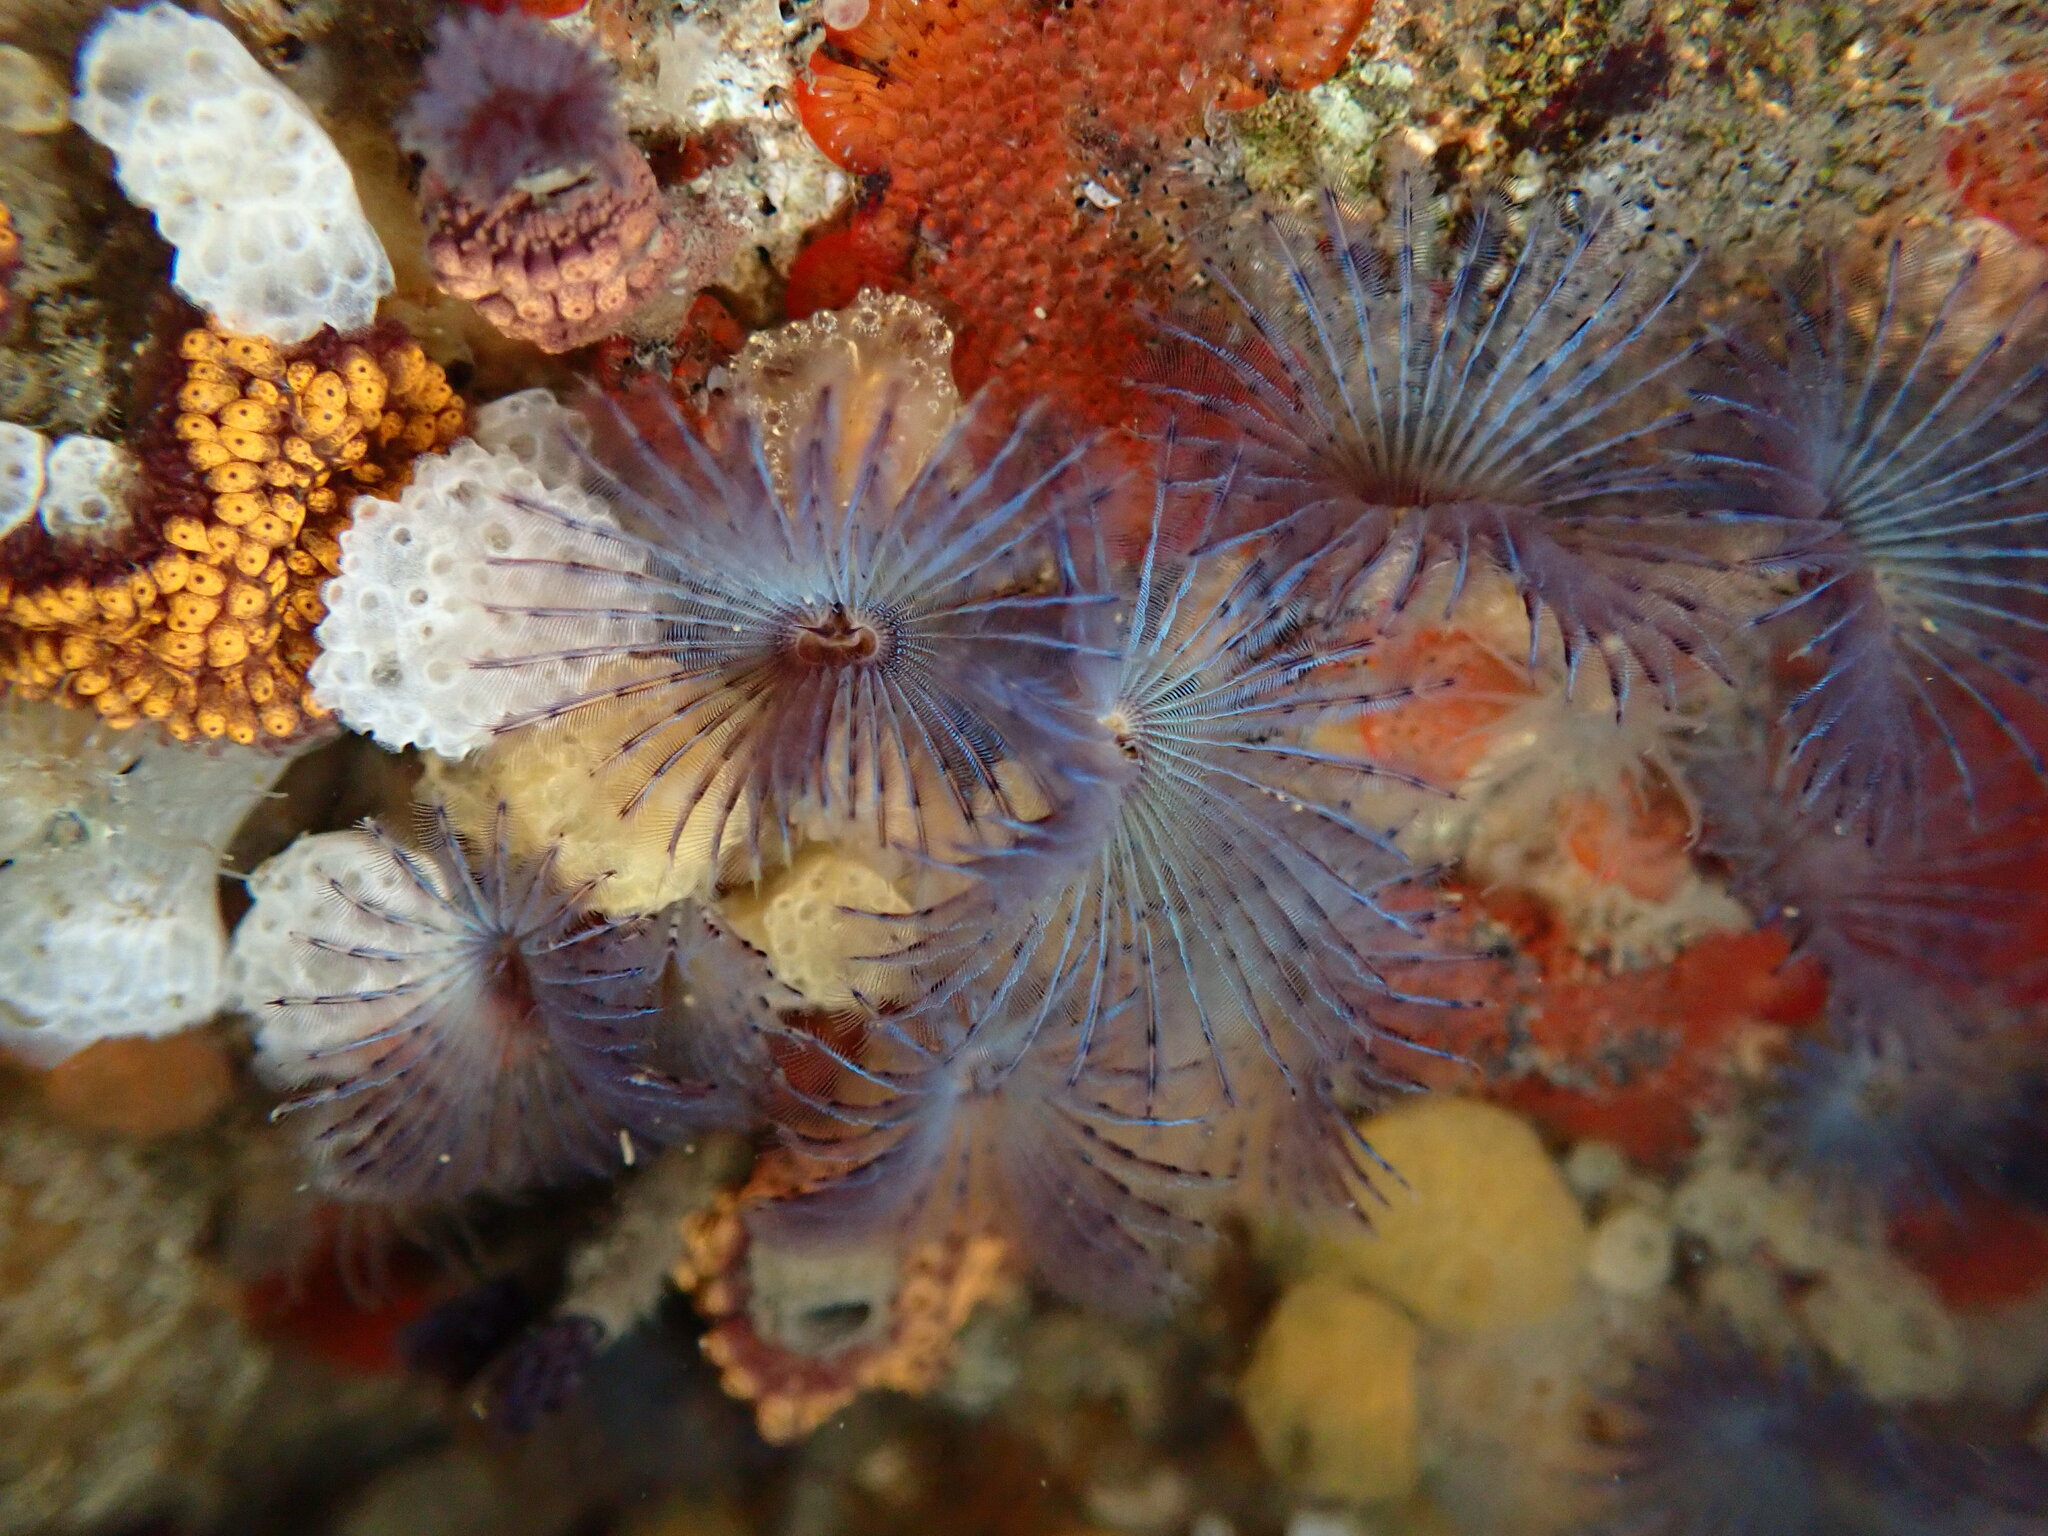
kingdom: Animalia
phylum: Annelida
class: Polychaeta
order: Sabellida
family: Sabellidae
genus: Bispira
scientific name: Bispira pacifica
